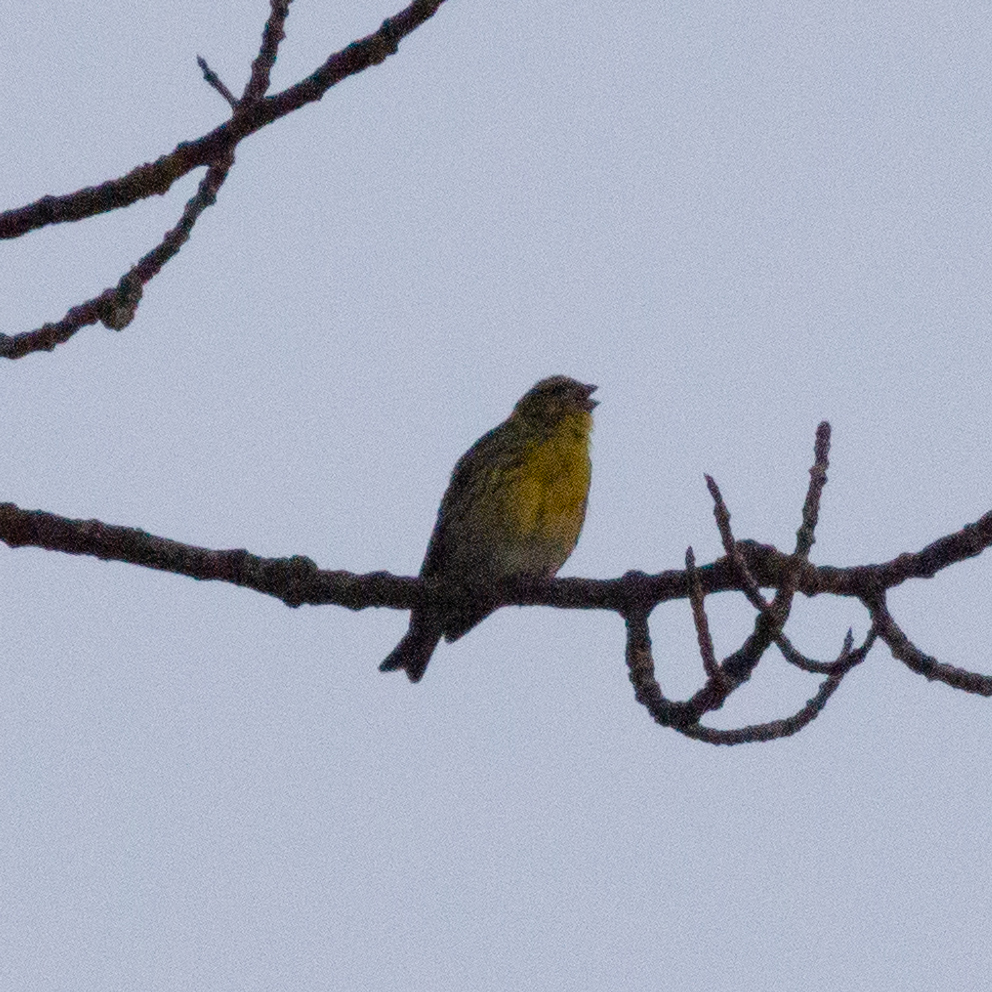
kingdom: Animalia
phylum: Chordata
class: Aves
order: Passeriformes
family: Fringillidae
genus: Serinus
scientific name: Serinus serinus
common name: European serin
